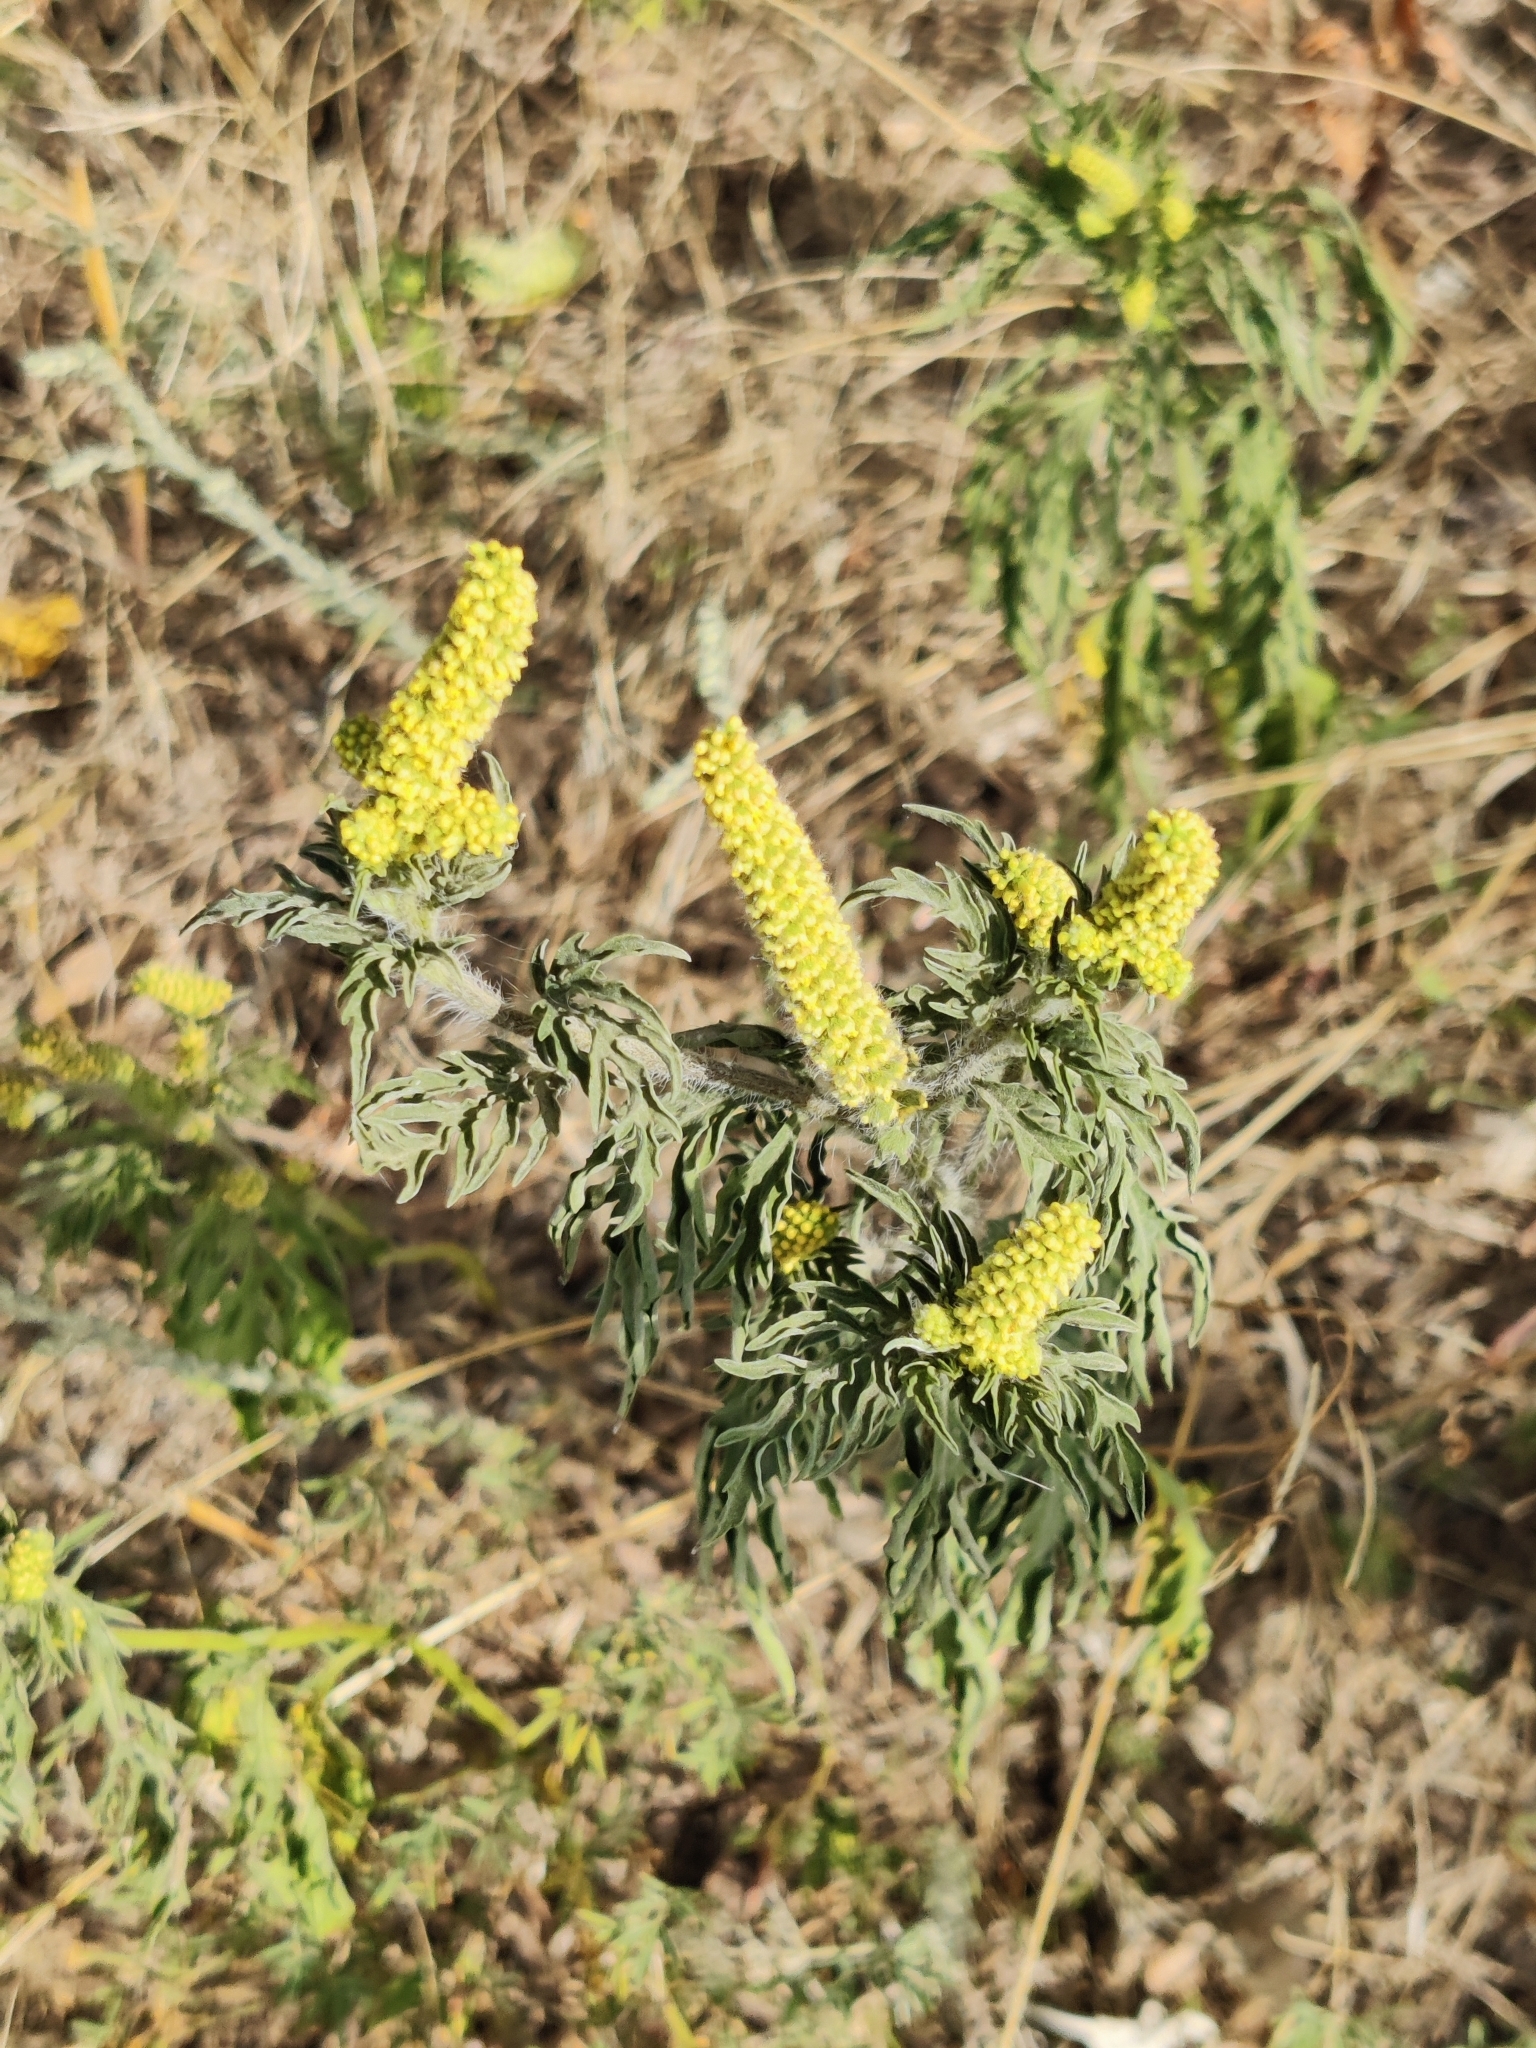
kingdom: Plantae
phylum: Tracheophyta
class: Magnoliopsida
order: Asterales
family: Asteraceae
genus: Ambrosia
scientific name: Ambrosia artemisiifolia
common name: Annual ragweed
